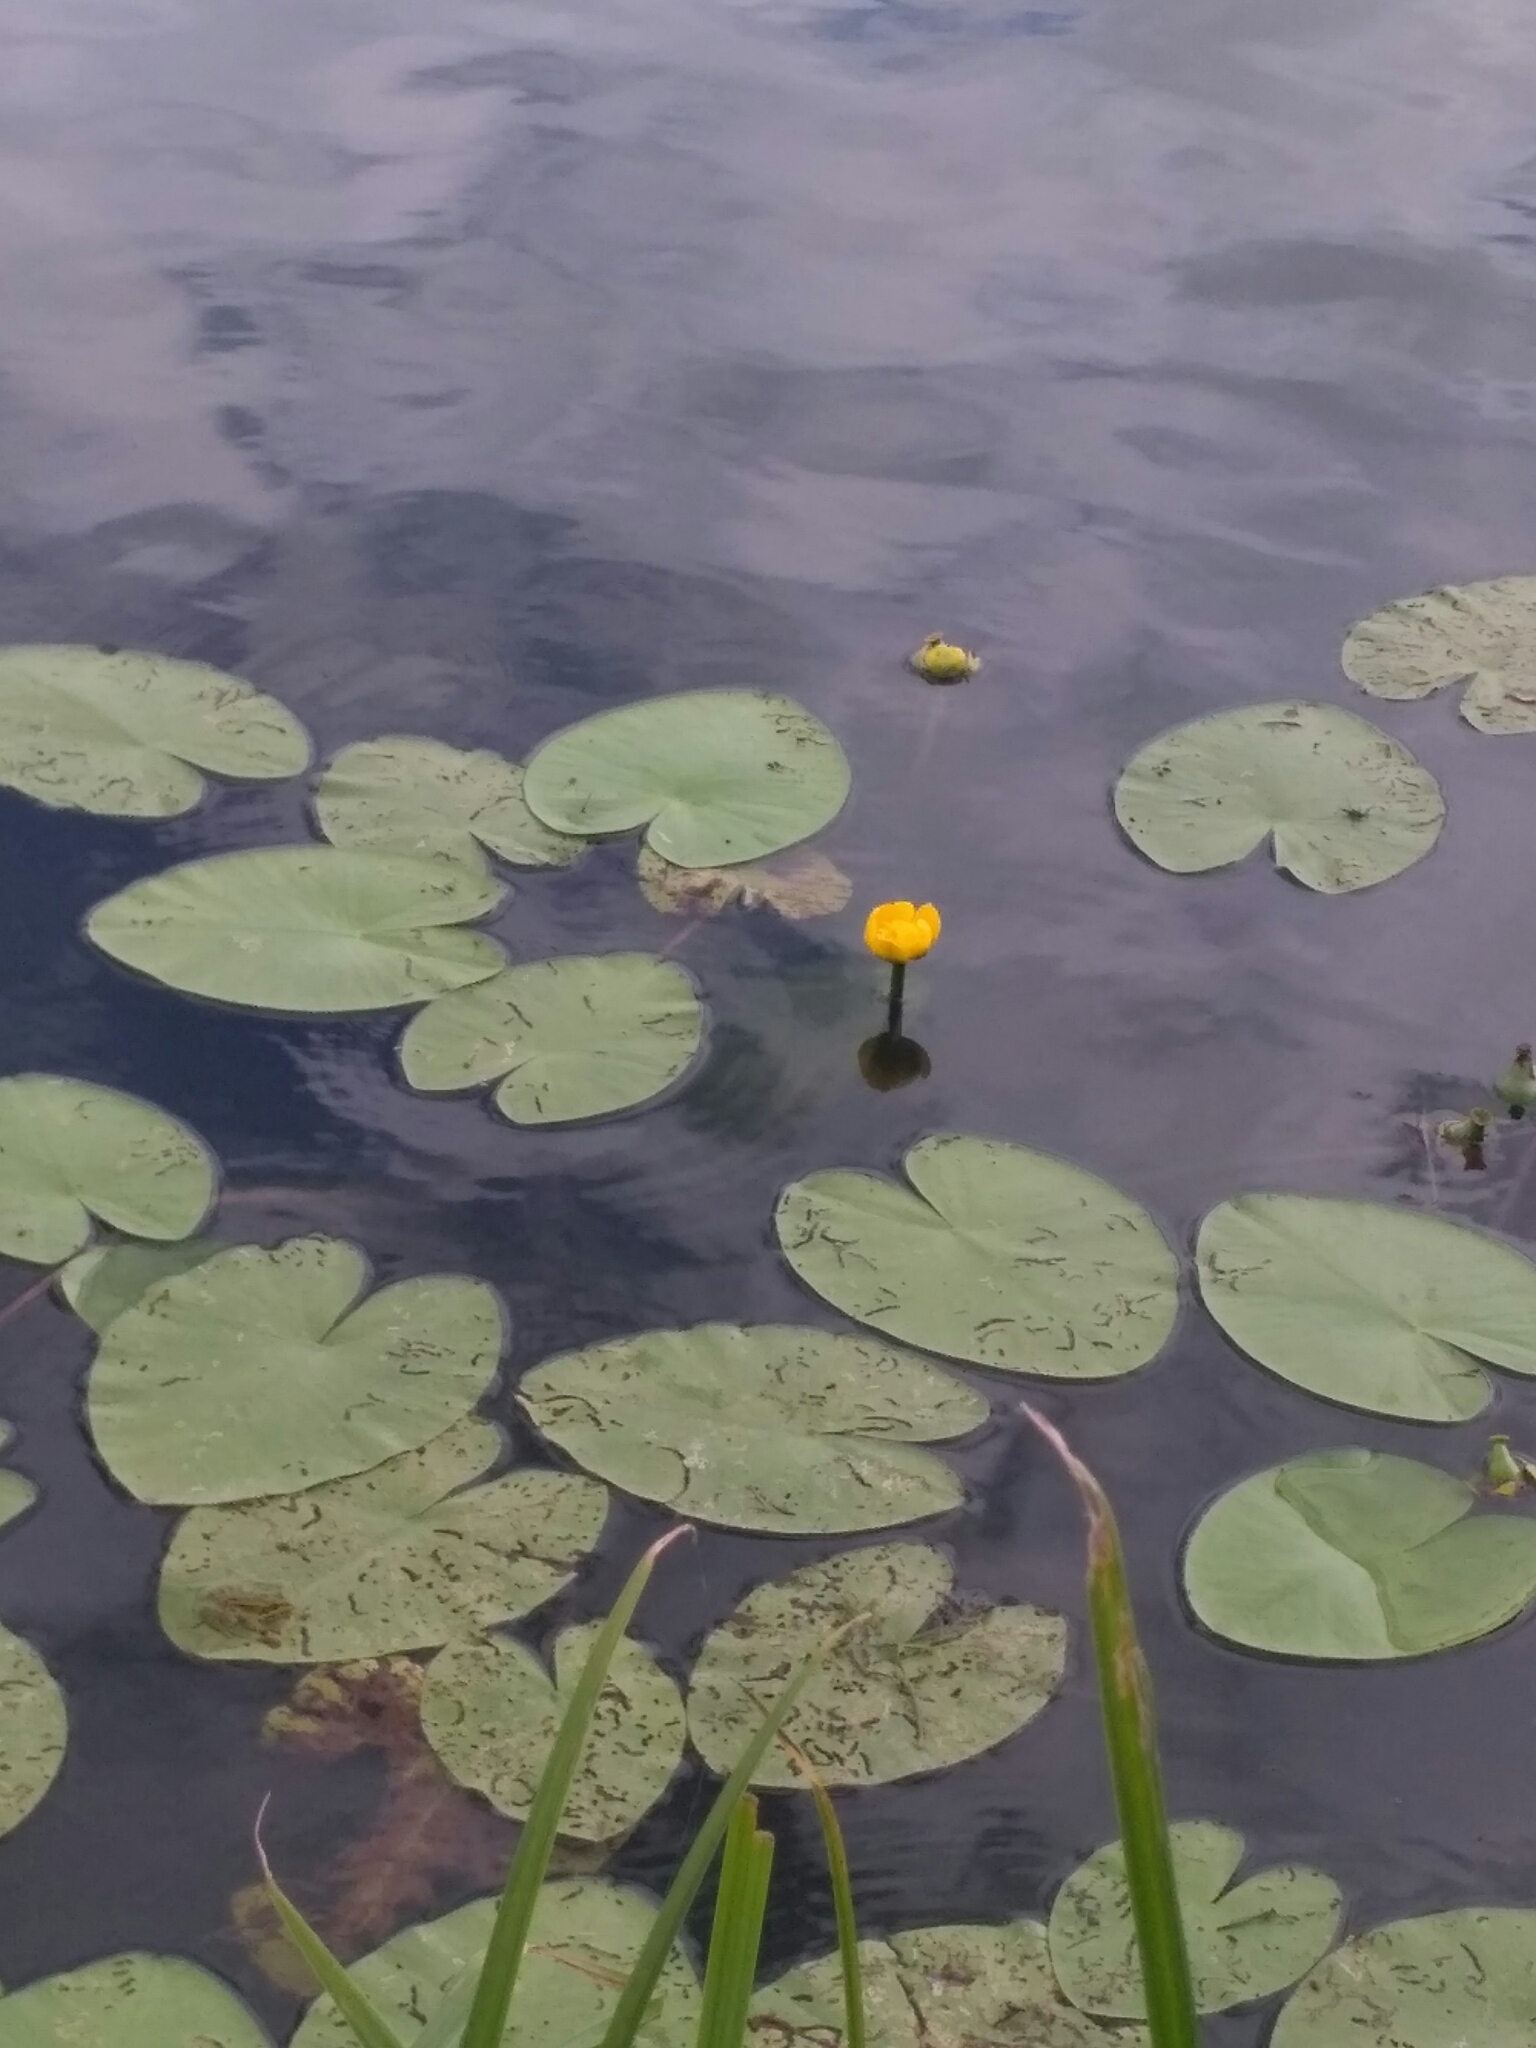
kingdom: Plantae
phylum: Tracheophyta
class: Magnoliopsida
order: Nymphaeales
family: Nymphaeaceae
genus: Nuphar
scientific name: Nuphar lutea
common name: Yellow water-lily
